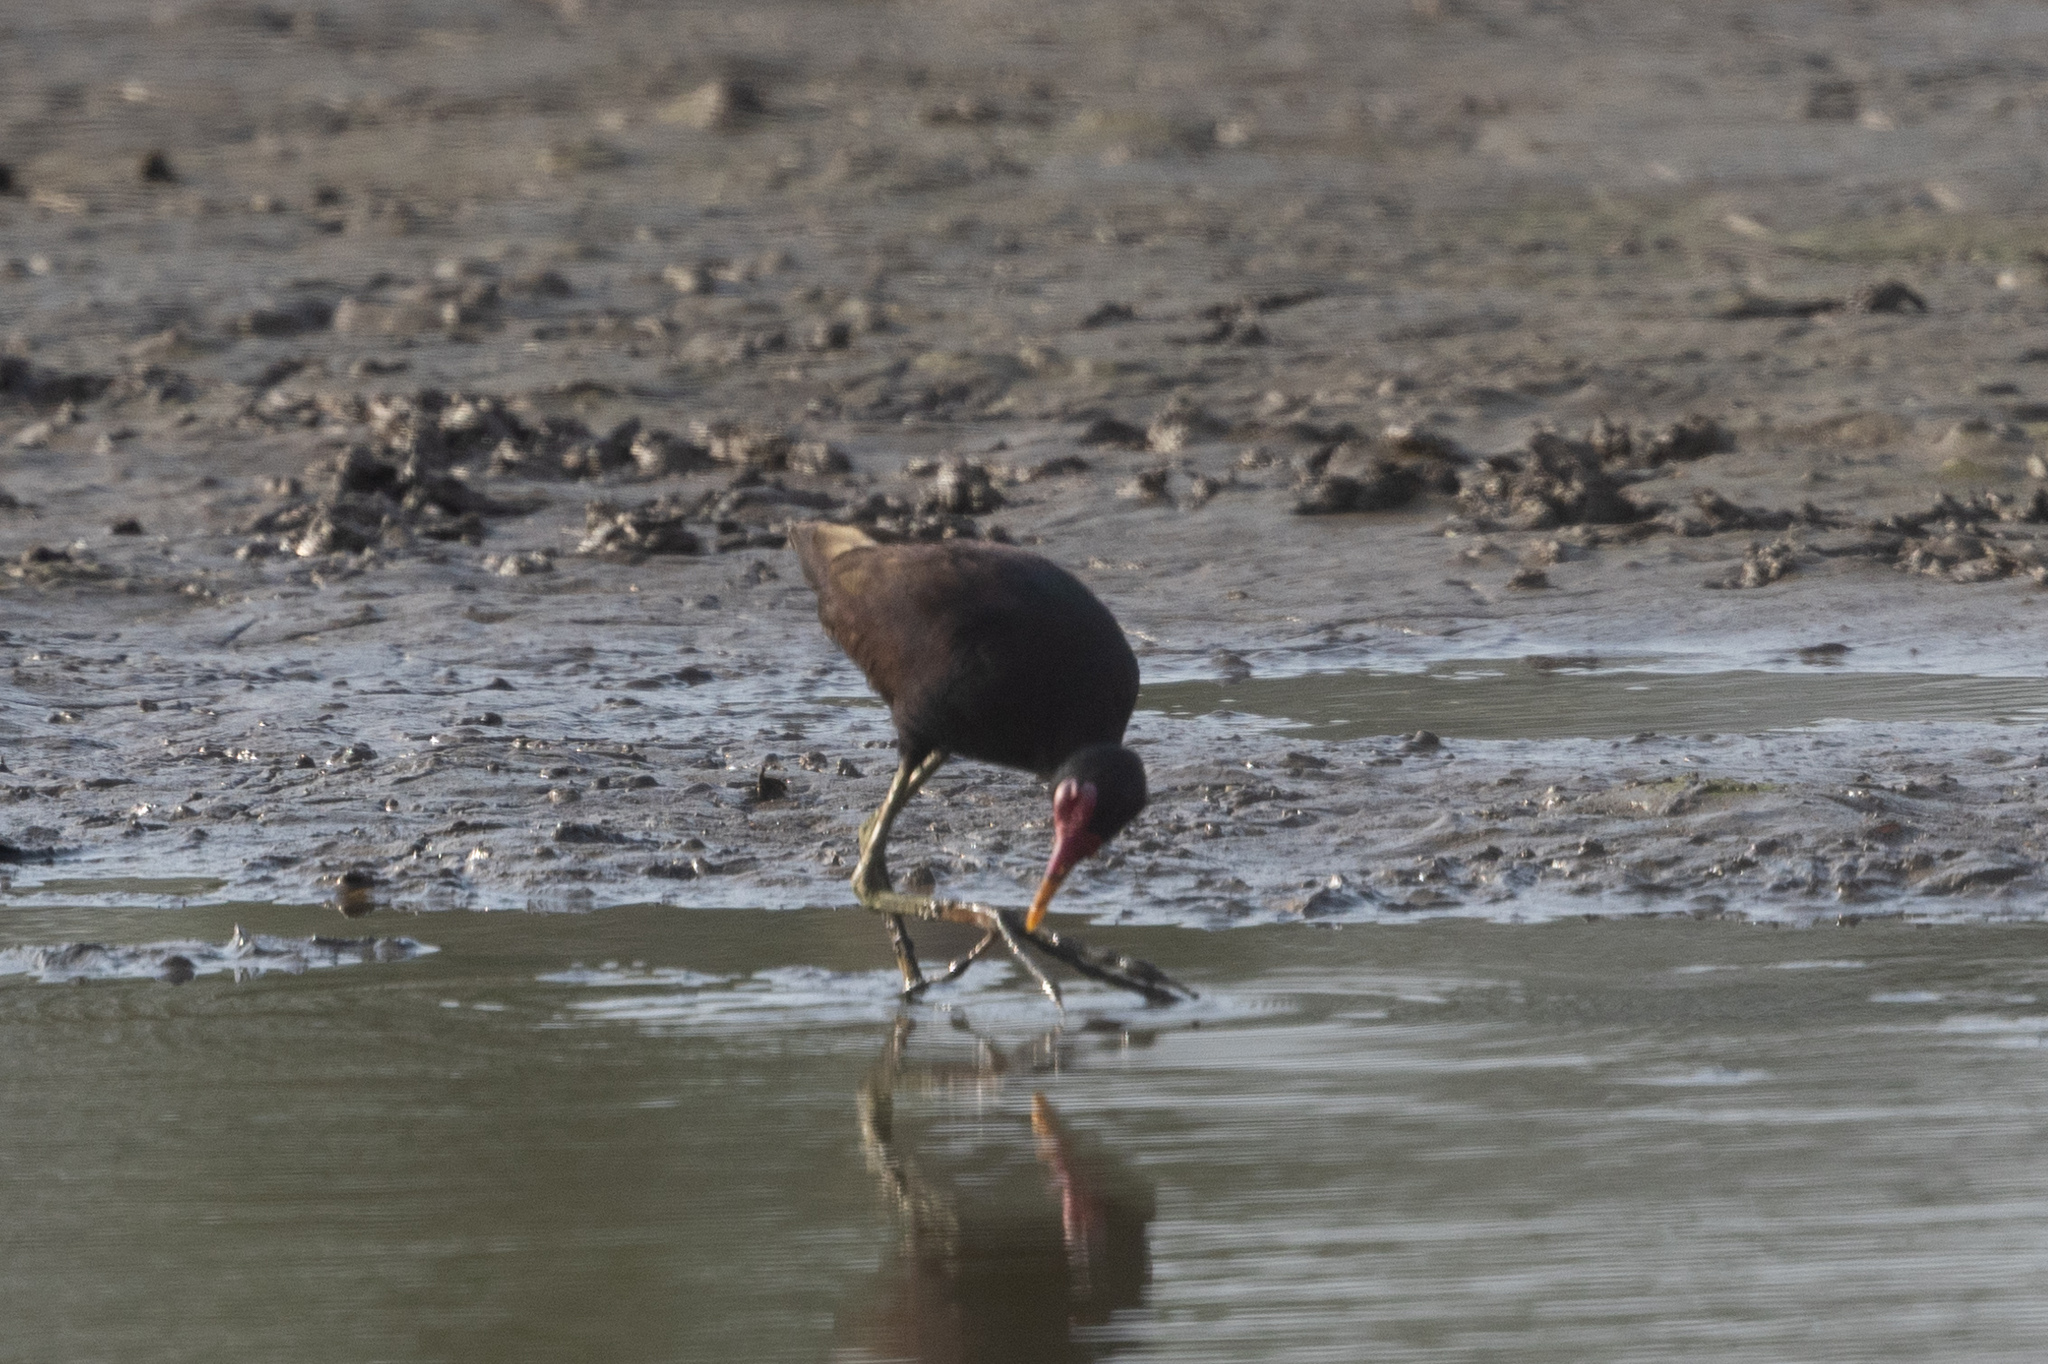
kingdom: Animalia
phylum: Chordata
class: Aves
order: Charadriiformes
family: Jacanidae
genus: Jacana
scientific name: Jacana jacana
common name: Wattled jacana
